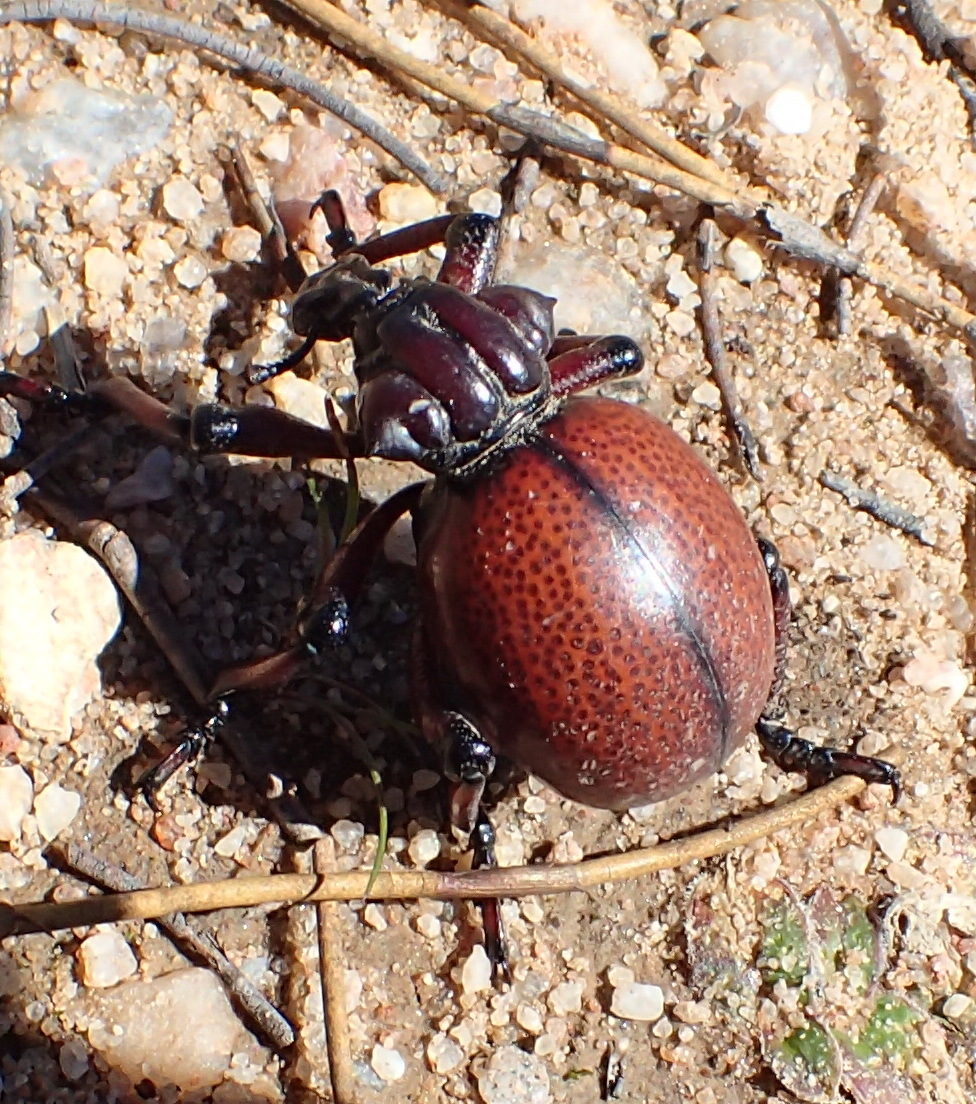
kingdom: Animalia
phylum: Arthropoda
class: Insecta
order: Coleoptera
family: Brachyceridae
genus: Brachycerus
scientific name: Brachycerus obesus
